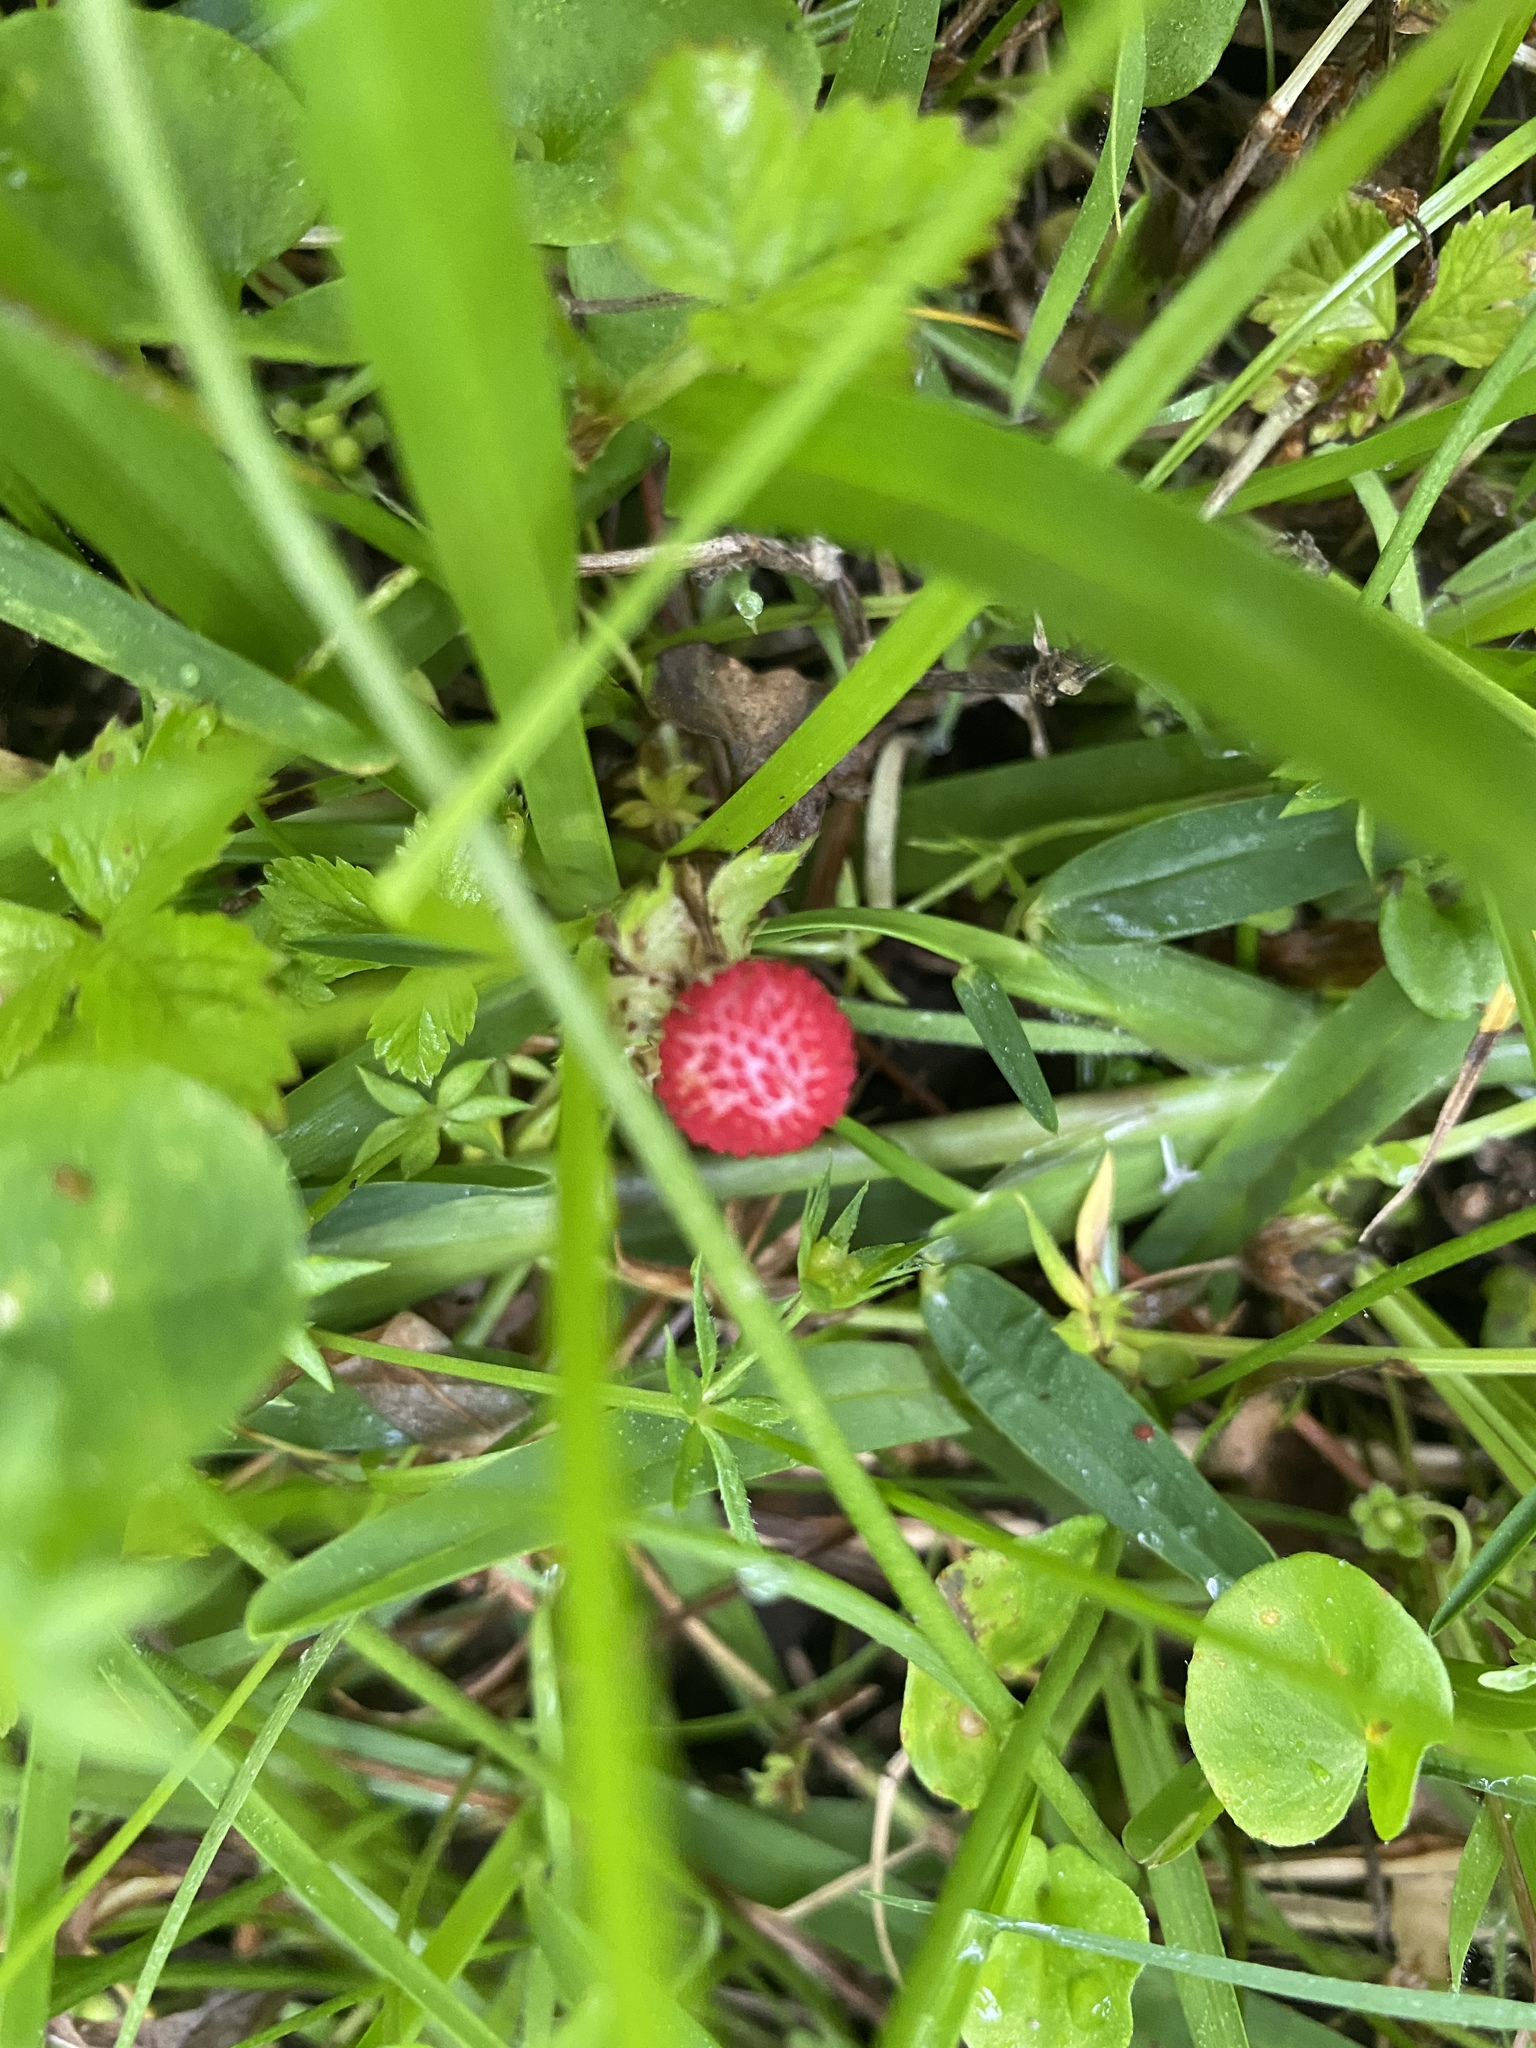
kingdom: Plantae
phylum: Tracheophyta
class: Magnoliopsida
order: Rosales
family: Rosaceae
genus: Potentilla
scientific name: Potentilla indica
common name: Yellow-flowered strawberry
